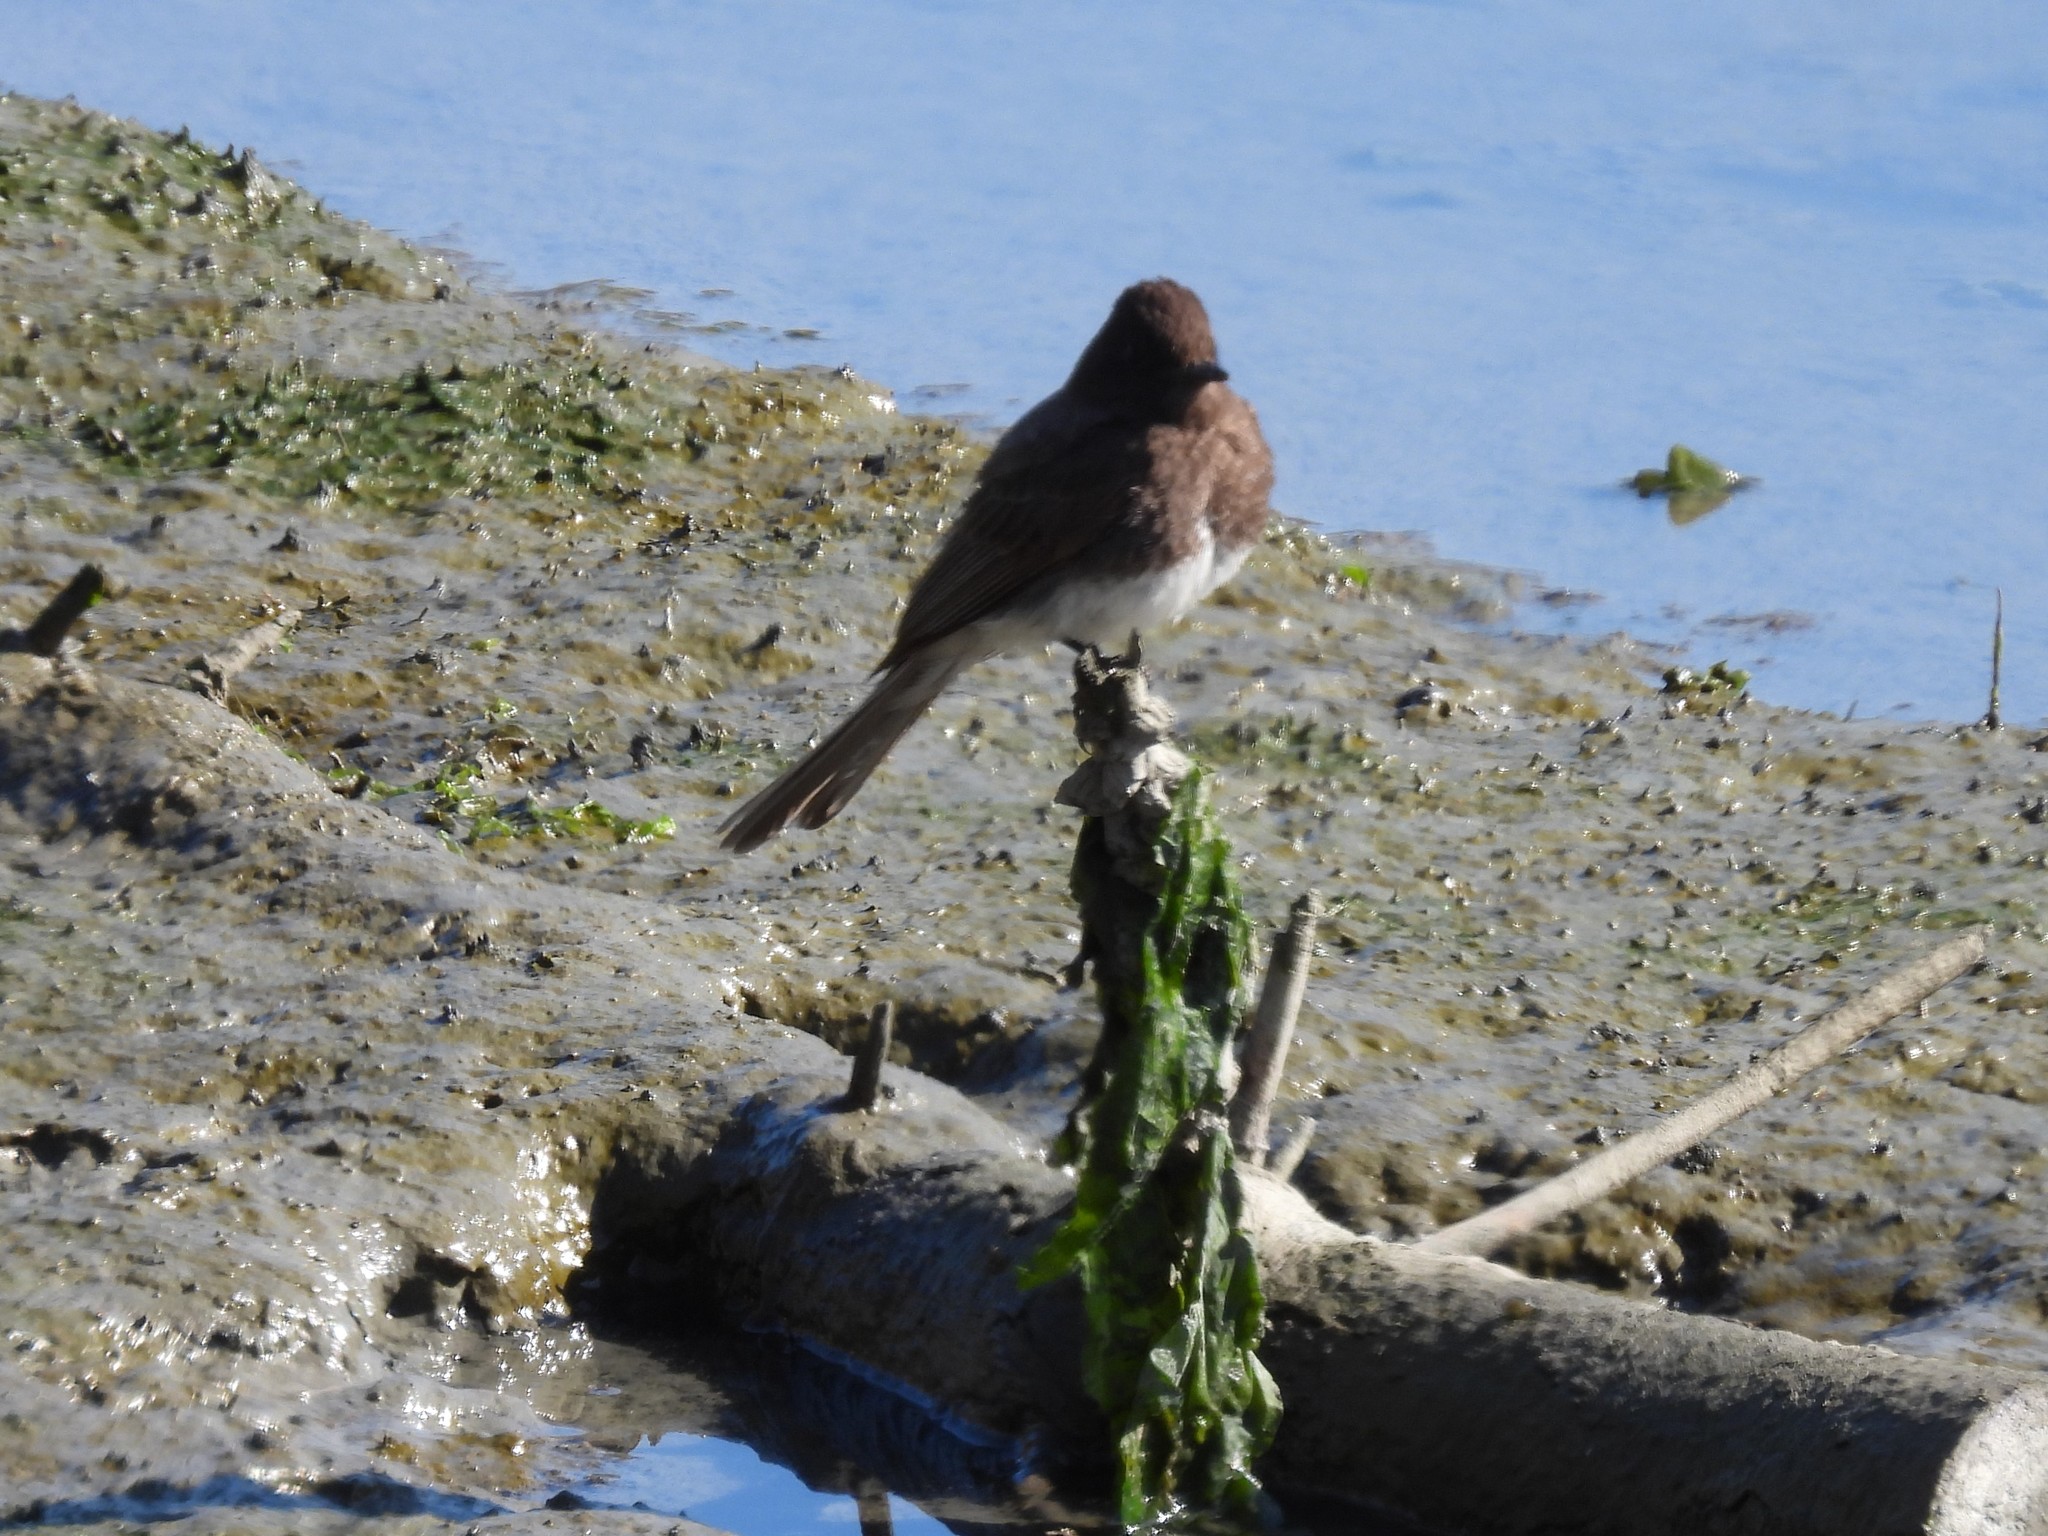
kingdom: Animalia
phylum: Chordata
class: Aves
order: Passeriformes
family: Tyrannidae
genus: Sayornis
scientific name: Sayornis nigricans
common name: Black phoebe
